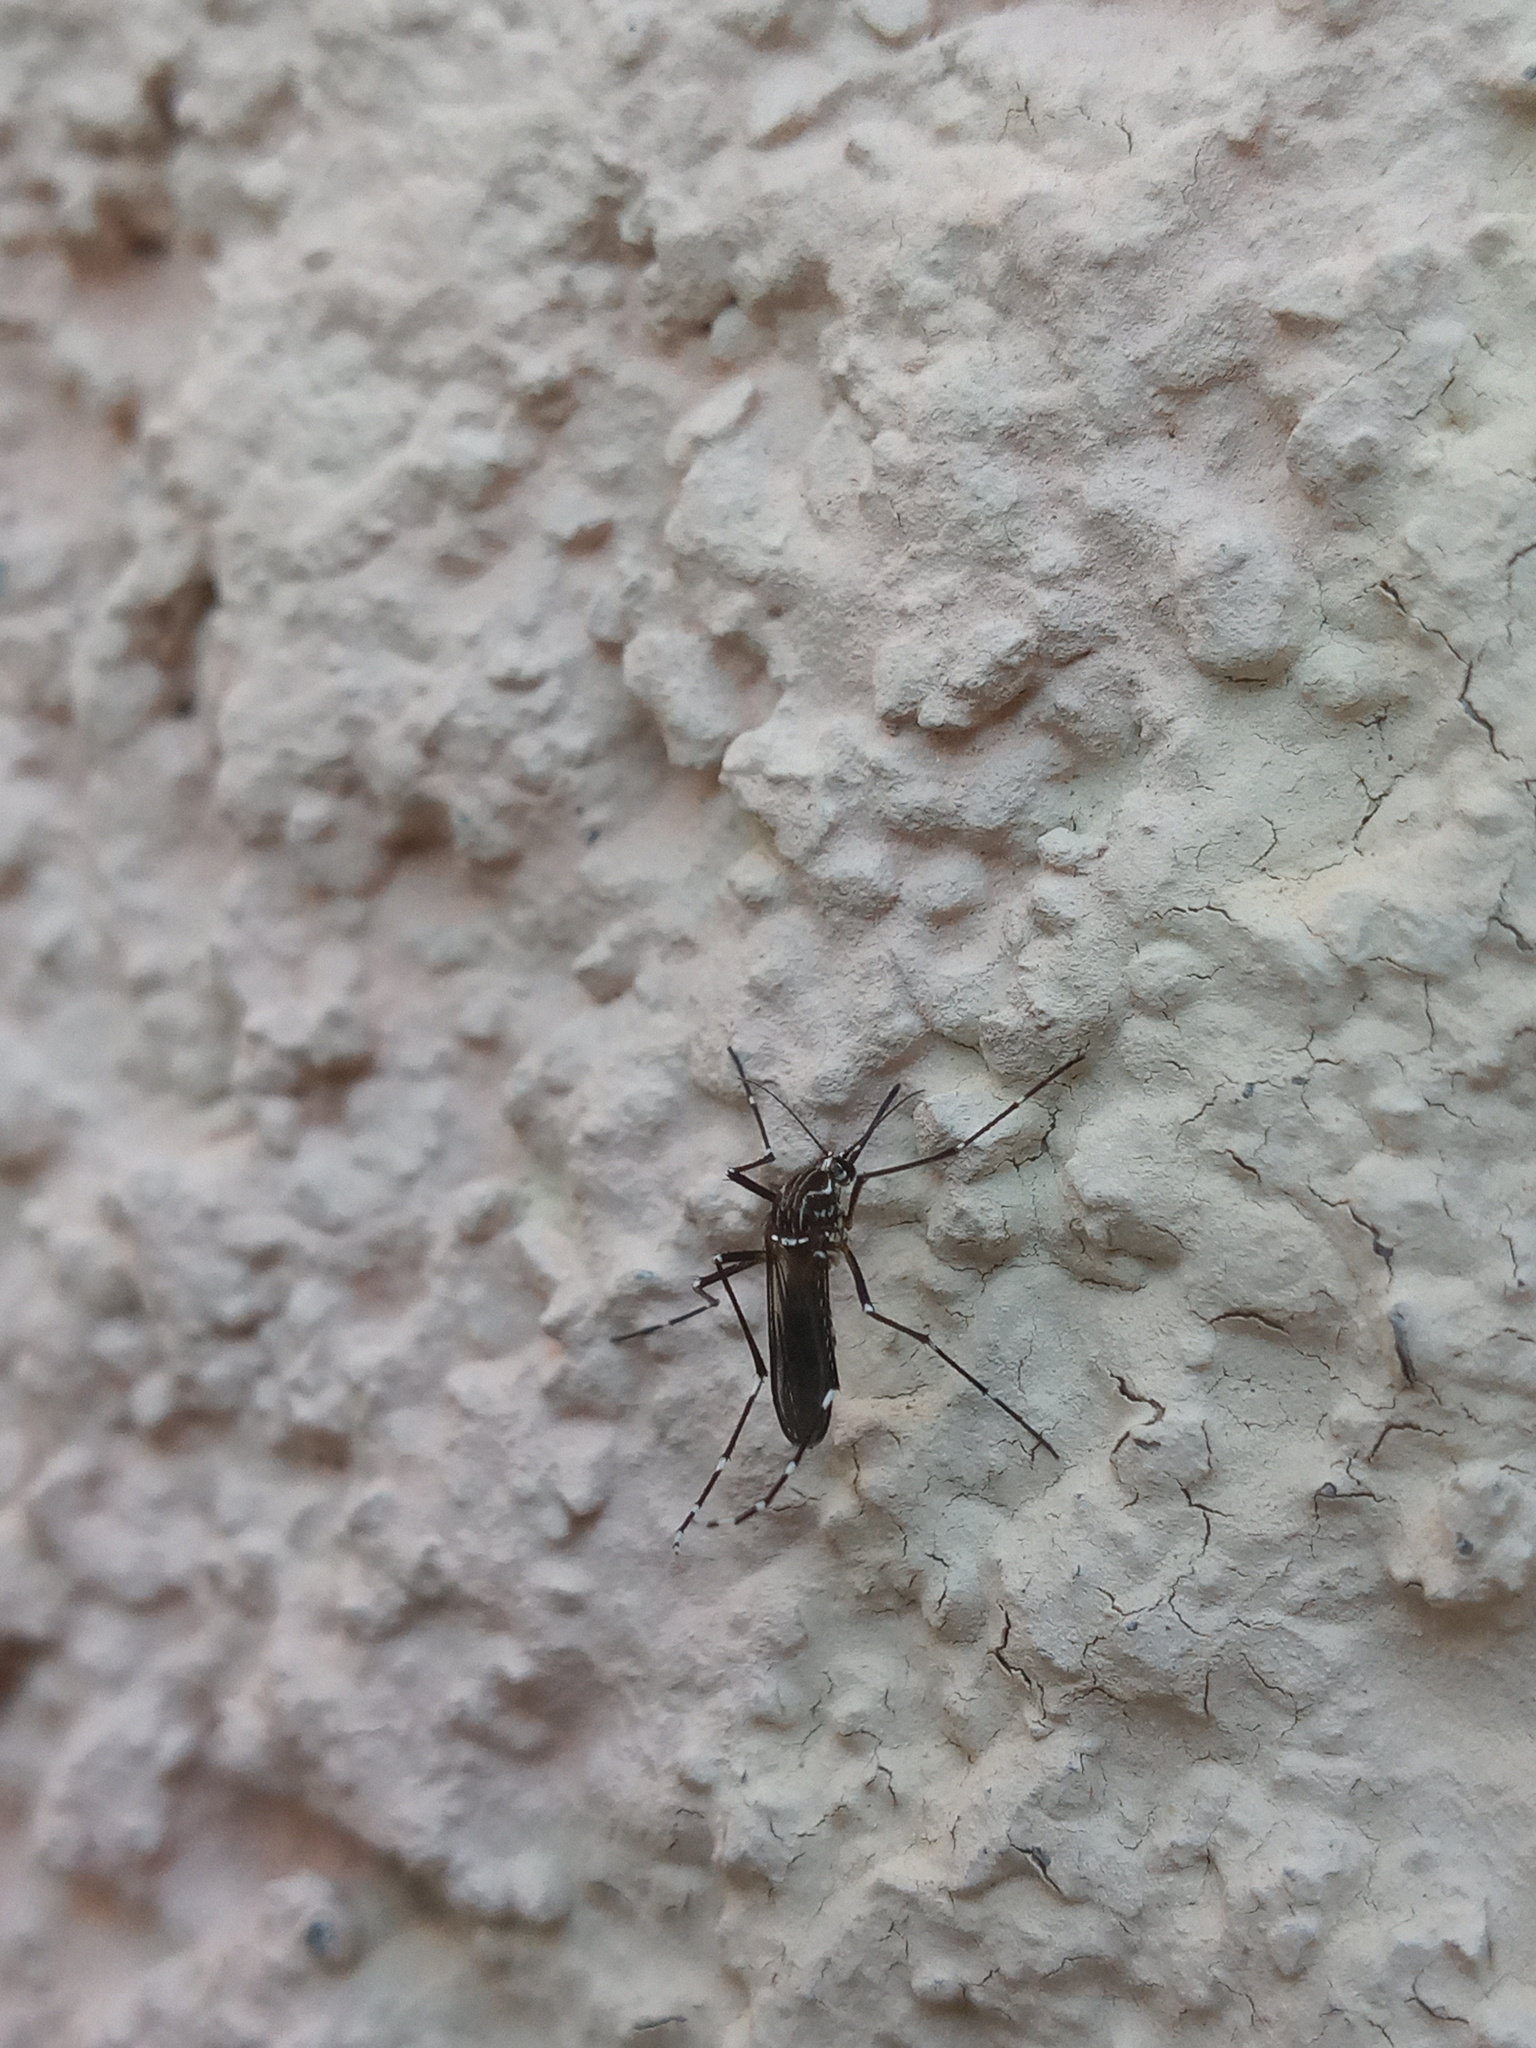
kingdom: Animalia
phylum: Arthropoda
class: Insecta
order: Diptera
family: Culicidae
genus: Aedes
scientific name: Aedes aegypti
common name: Yellow fever mosquito
